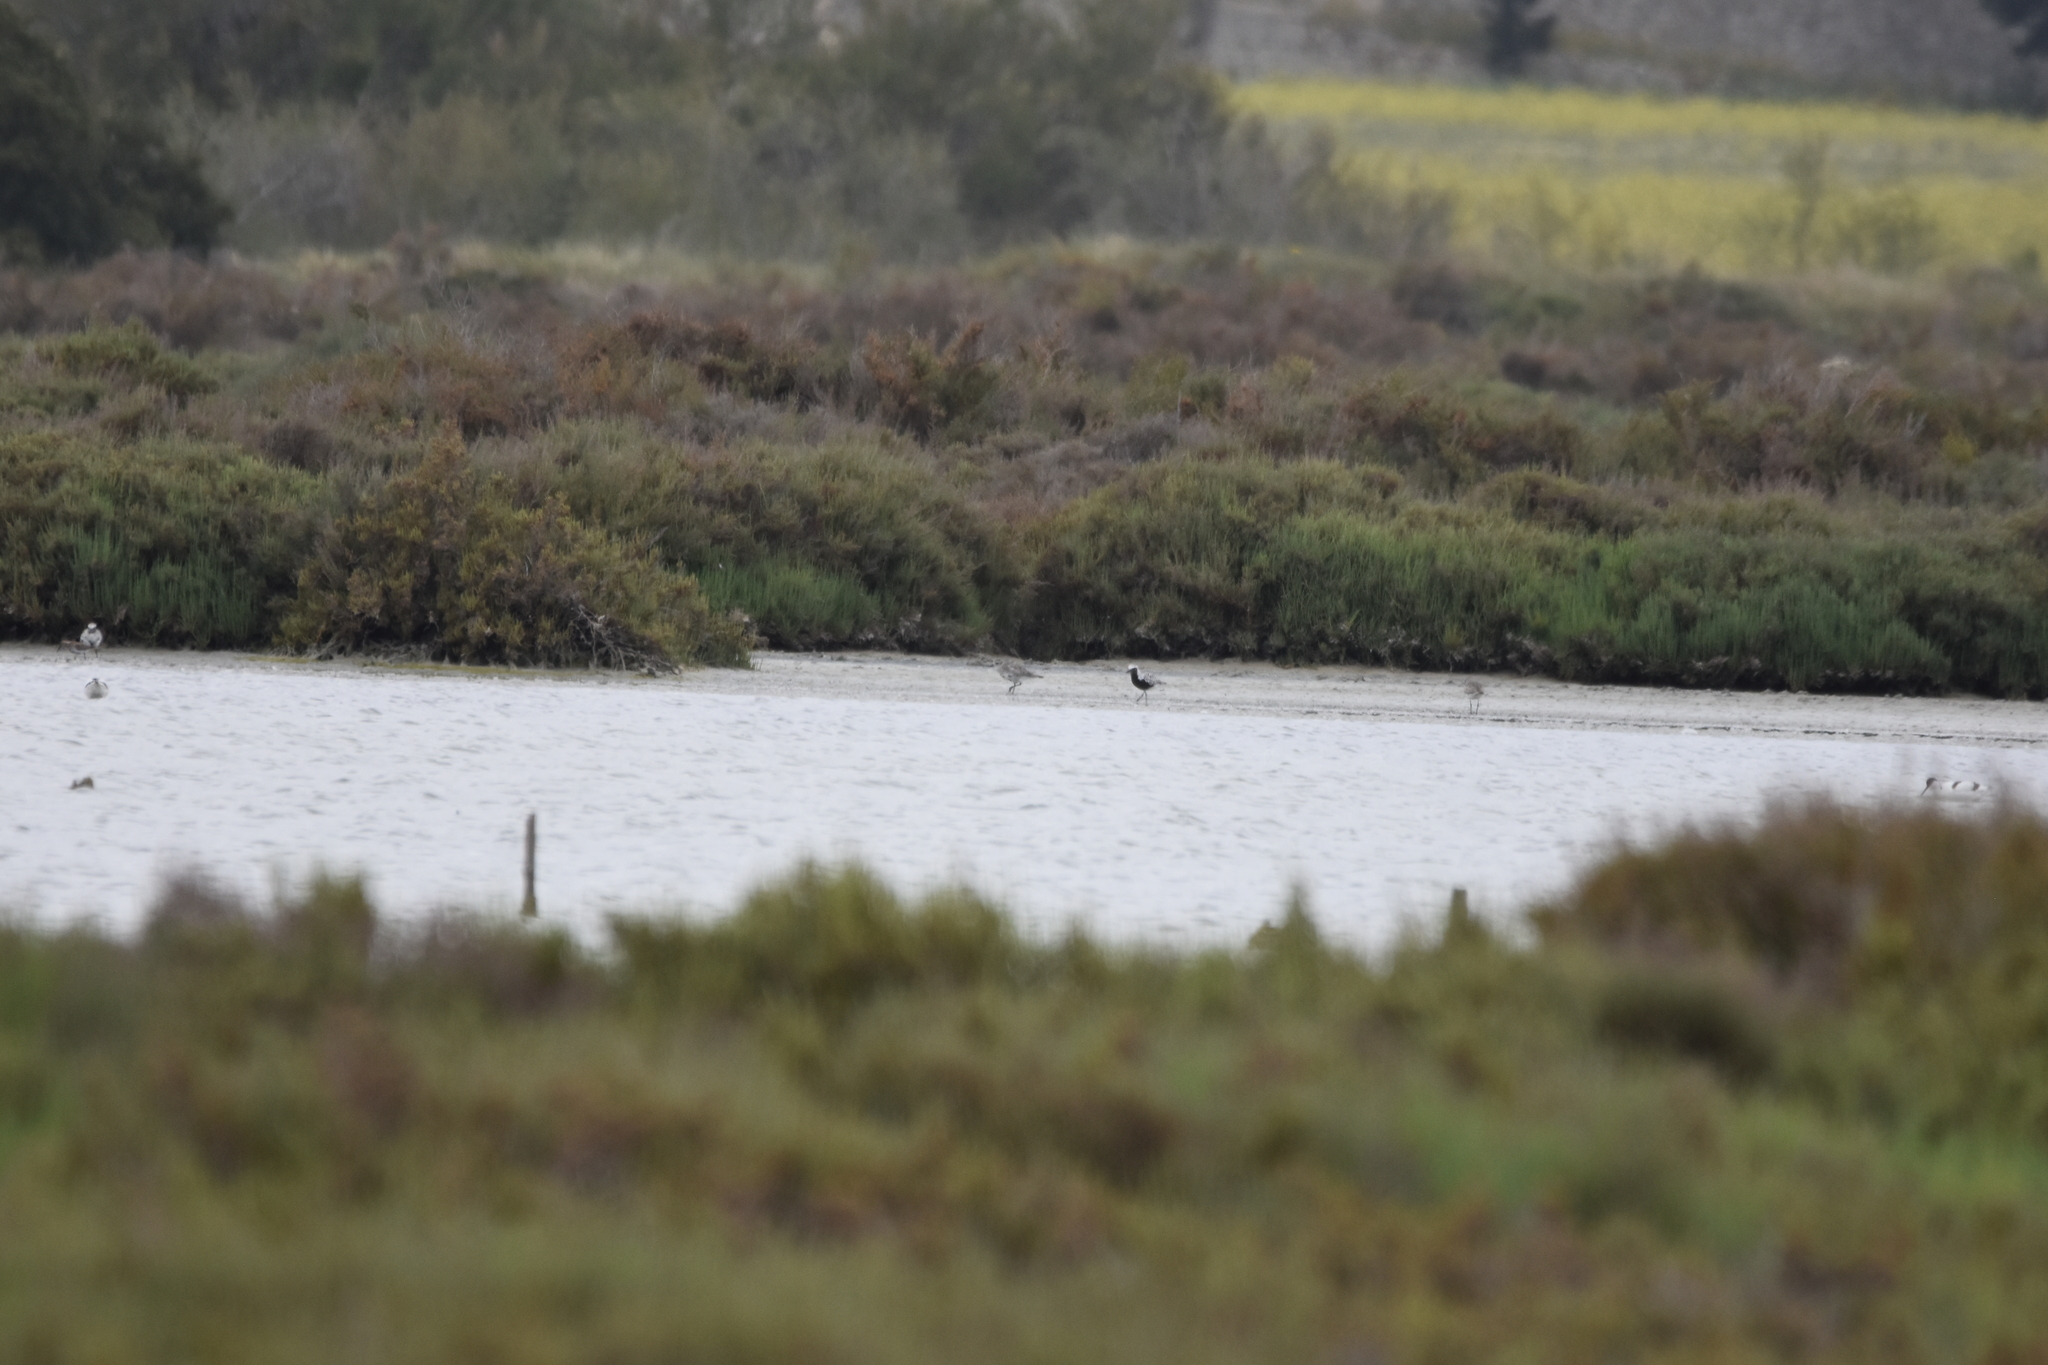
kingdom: Animalia
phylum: Chordata
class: Aves
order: Charadriiformes
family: Charadriidae
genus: Pluvialis
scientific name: Pluvialis squatarola
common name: Grey plover
